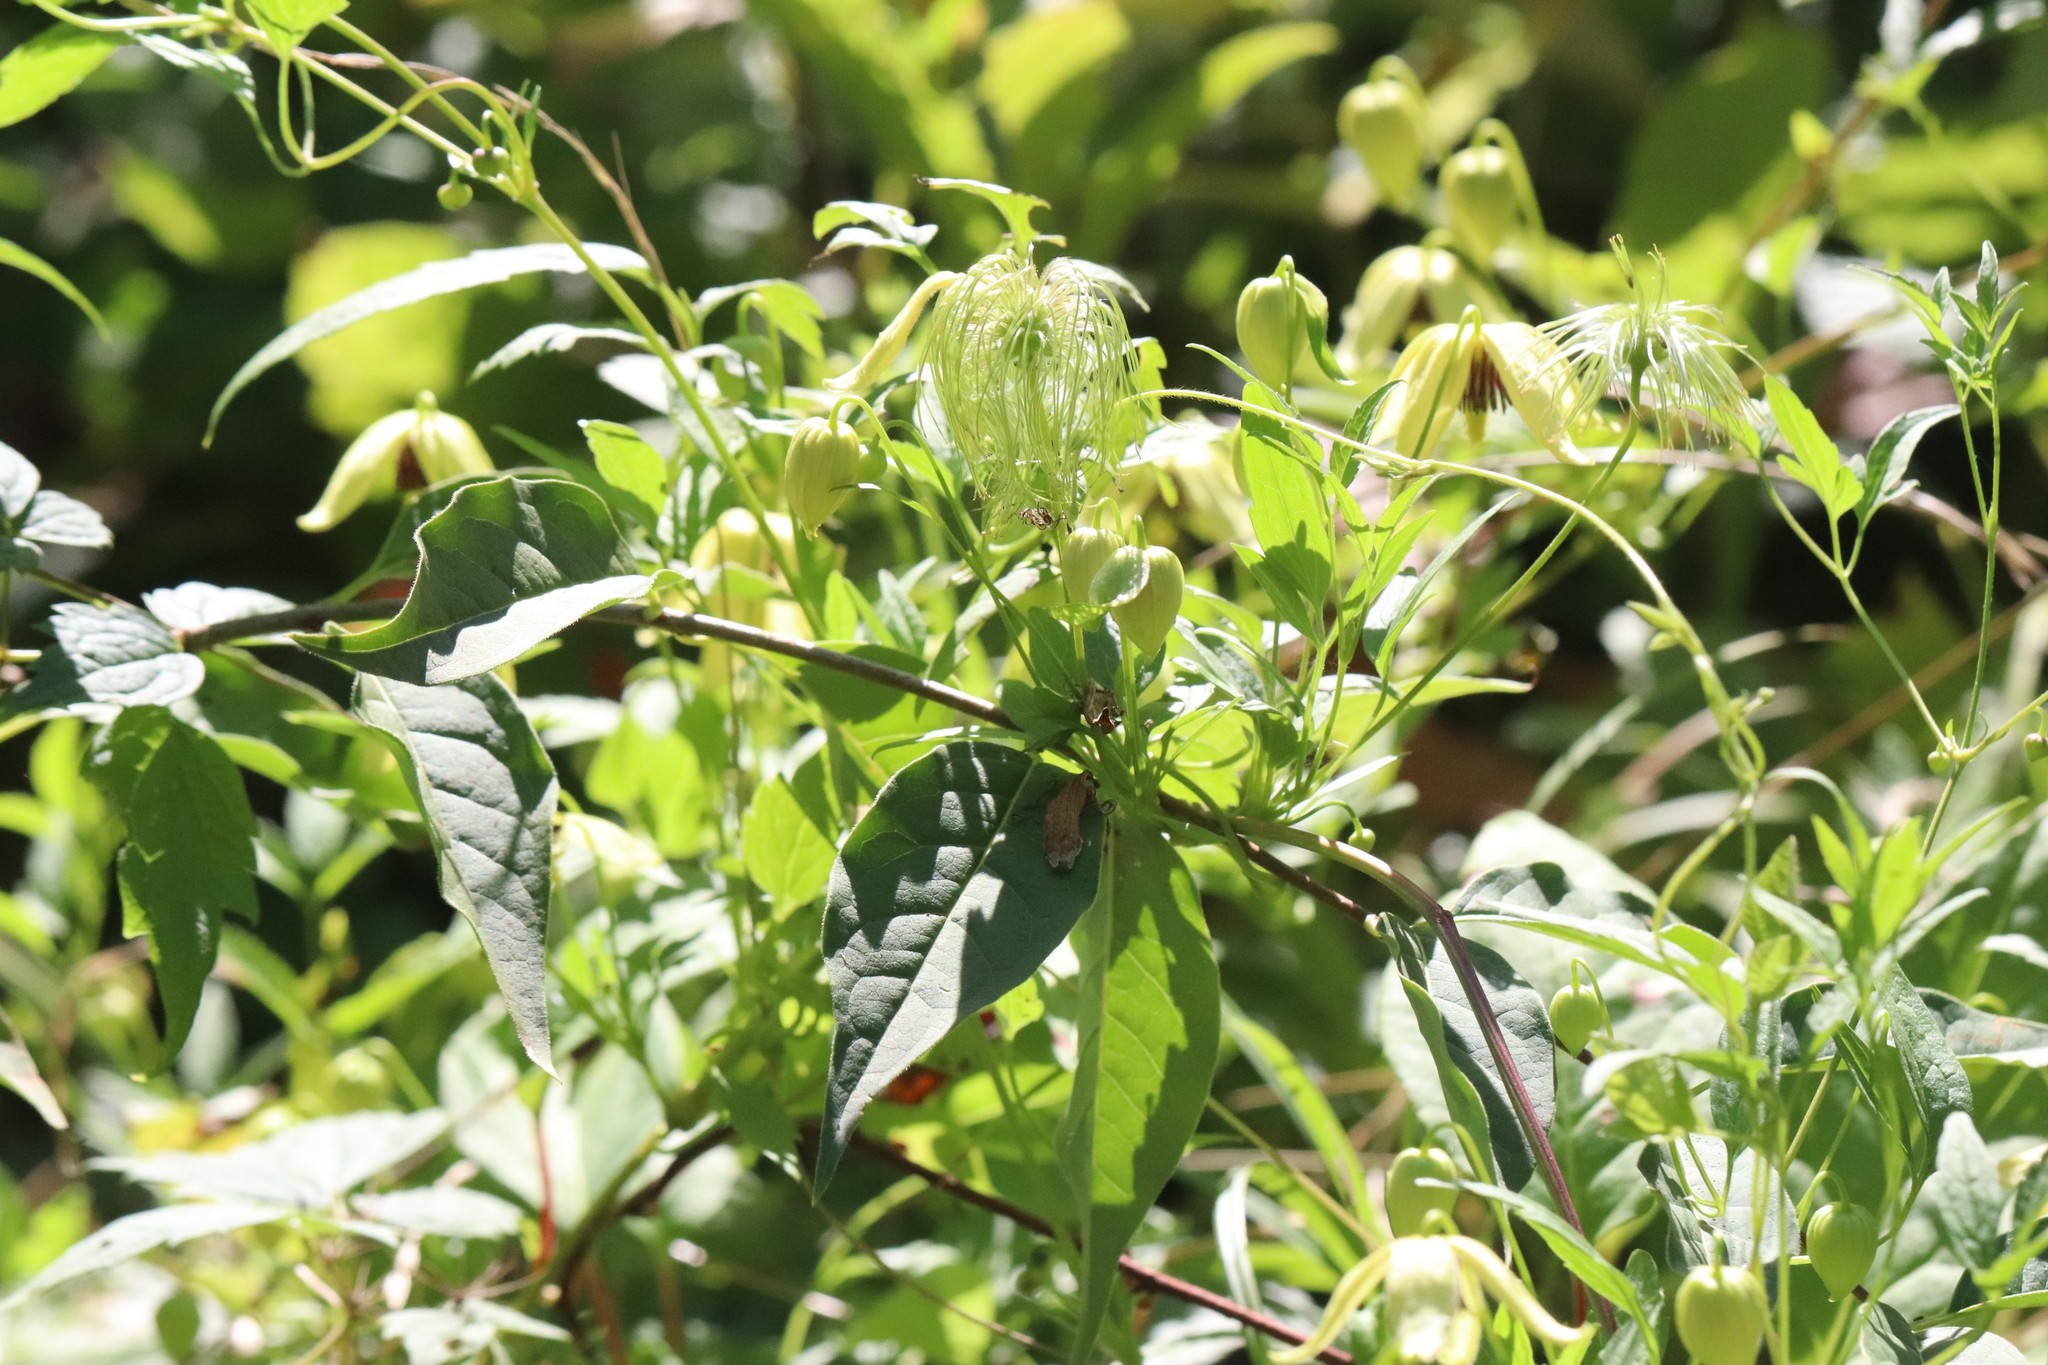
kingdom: Plantae
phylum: Tracheophyta
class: Magnoliopsida
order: Ranunculales
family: Ranunculaceae
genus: Clematis
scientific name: Clematis serratifolia
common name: Korean clematis
